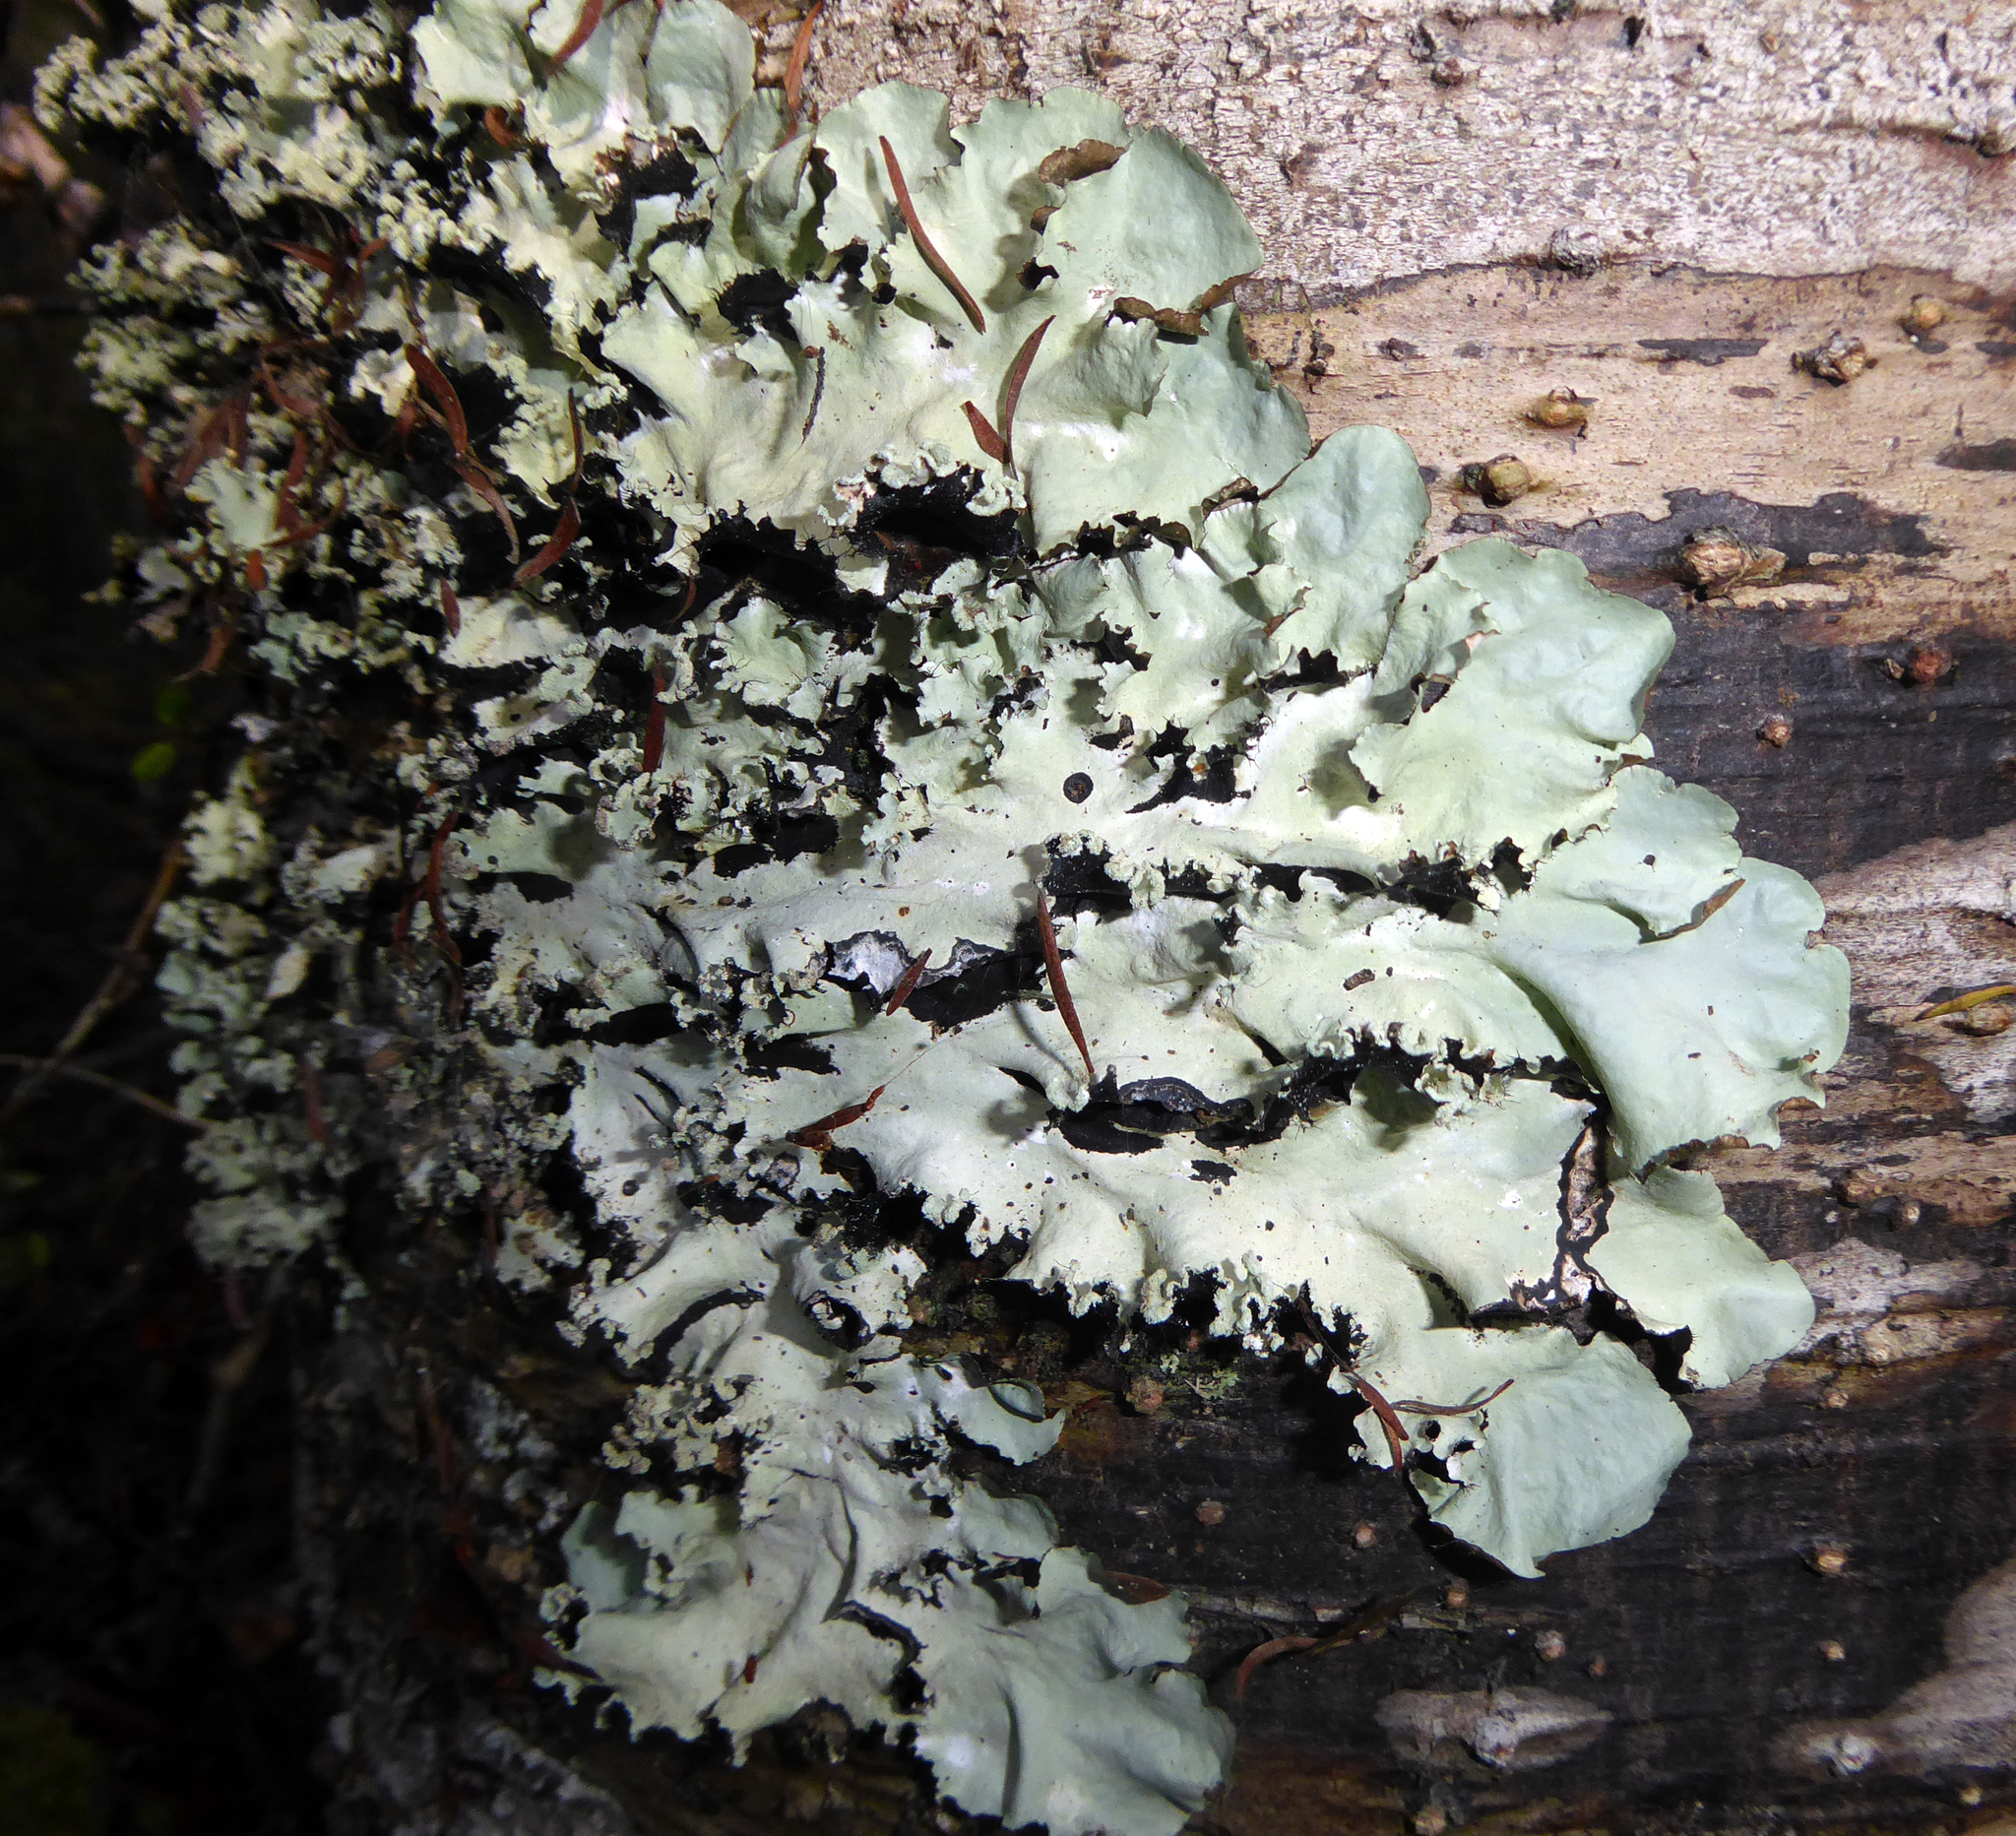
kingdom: Fungi
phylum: Ascomycota
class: Lecanoromycetes
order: Lecanorales
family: Parmeliaceae
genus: Parmotrema
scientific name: Parmotrema robustum
